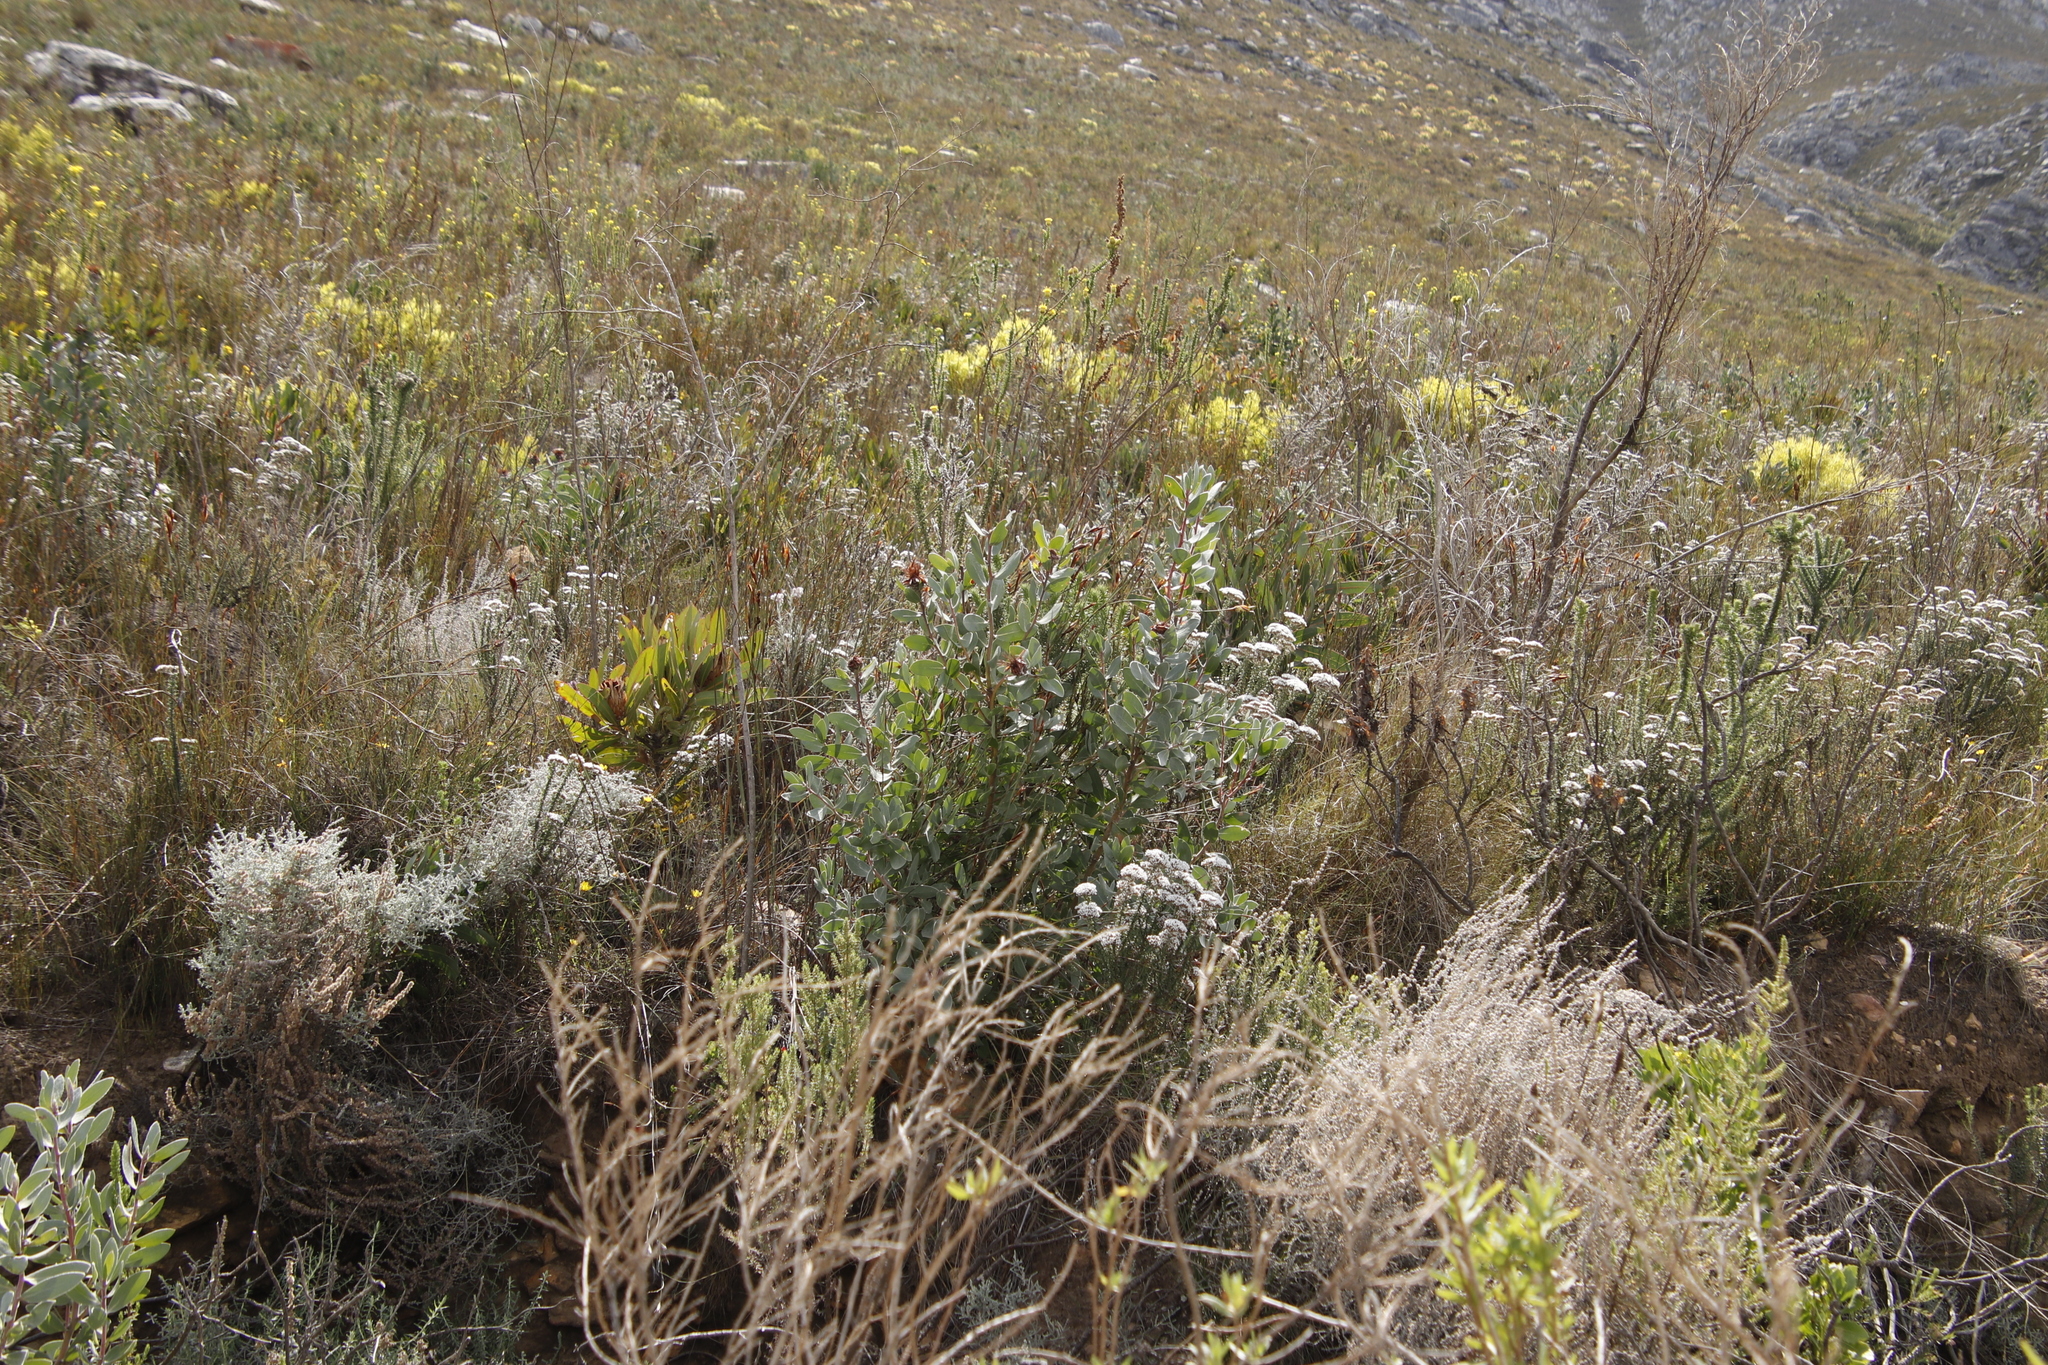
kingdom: Plantae
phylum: Tracheophyta
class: Magnoliopsida
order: Proteales
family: Proteaceae
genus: Protea
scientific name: Protea punctata
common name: Water sugarbush
